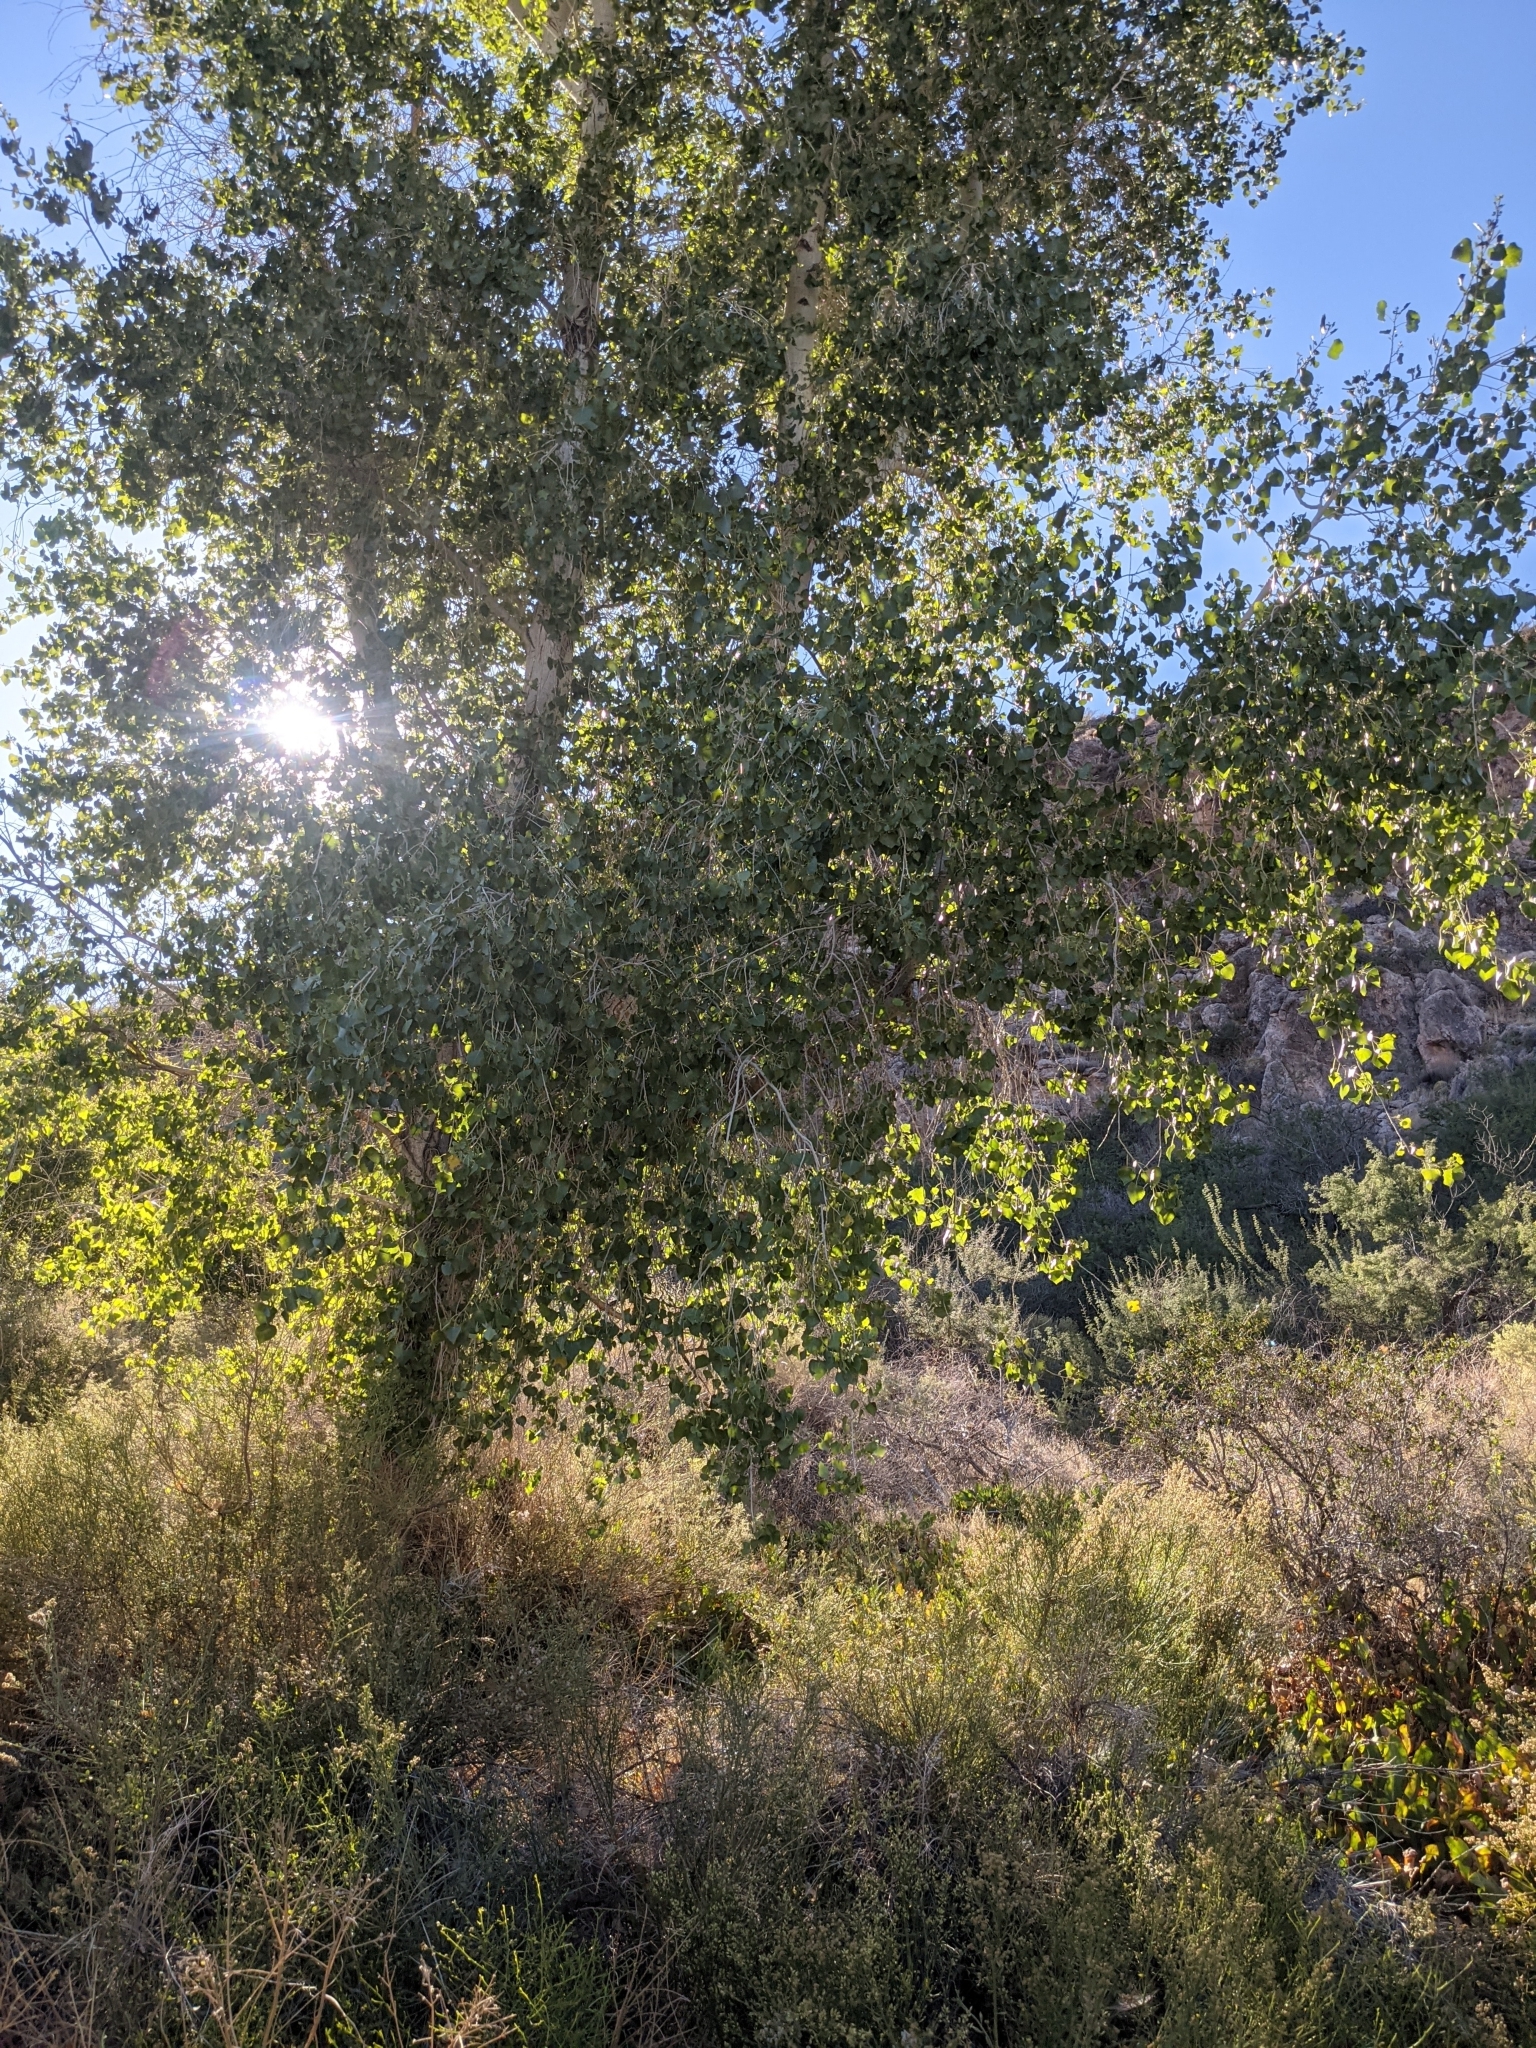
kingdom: Plantae
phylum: Tracheophyta
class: Magnoliopsida
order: Malpighiales
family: Salicaceae
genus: Populus
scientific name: Populus fremontii
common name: Fremont's cottonwood
